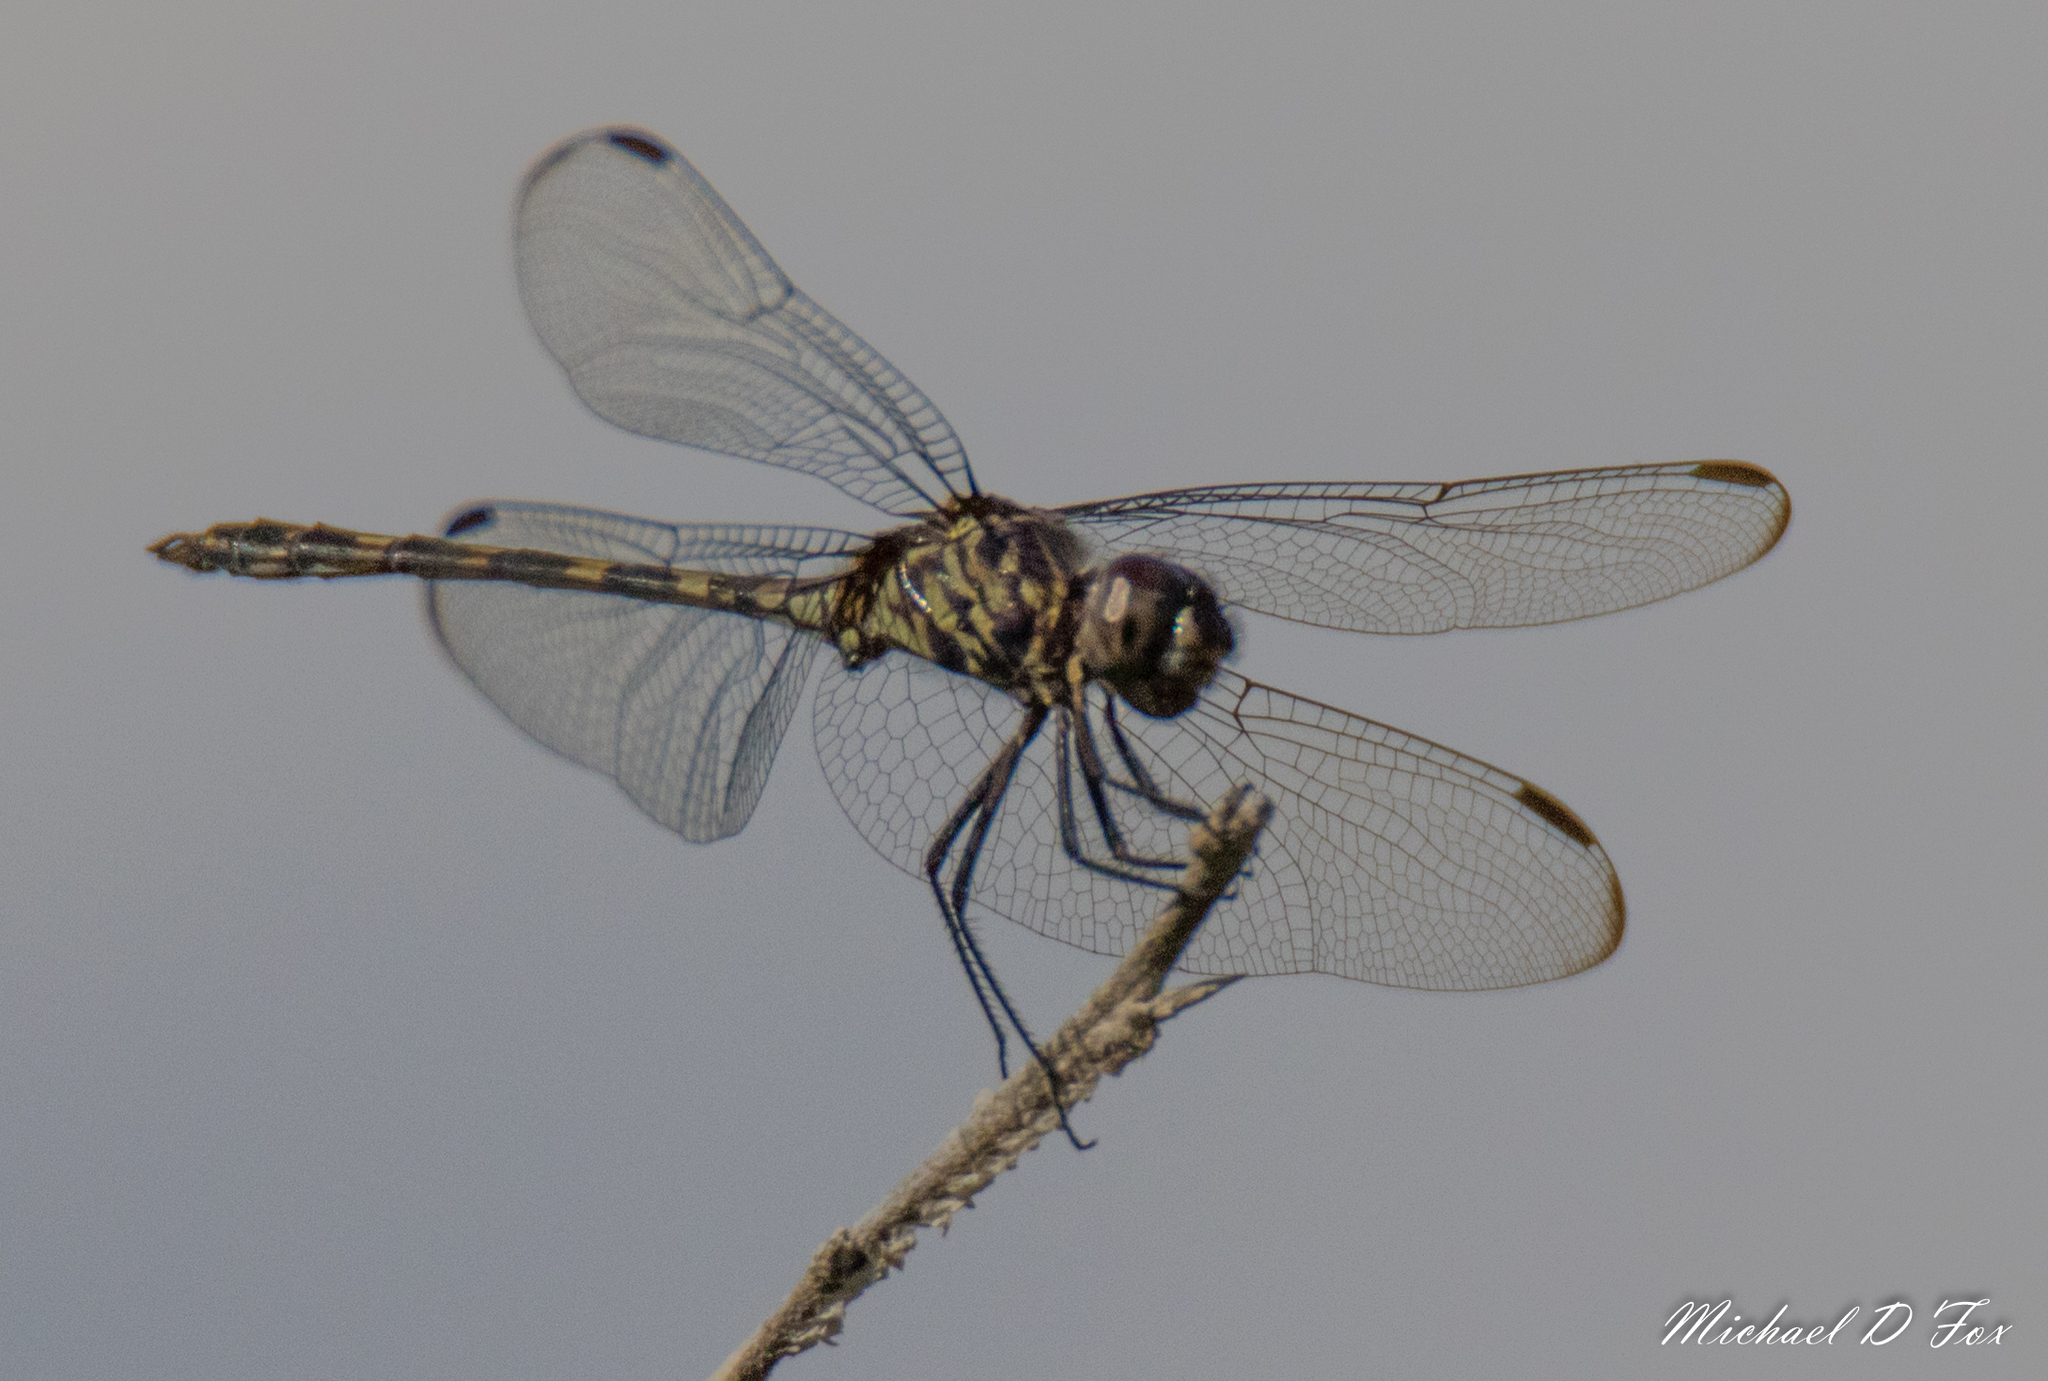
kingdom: Animalia
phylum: Arthropoda
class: Insecta
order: Odonata
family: Libellulidae
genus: Dythemis
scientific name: Dythemis nigrescens
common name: Black setwing
